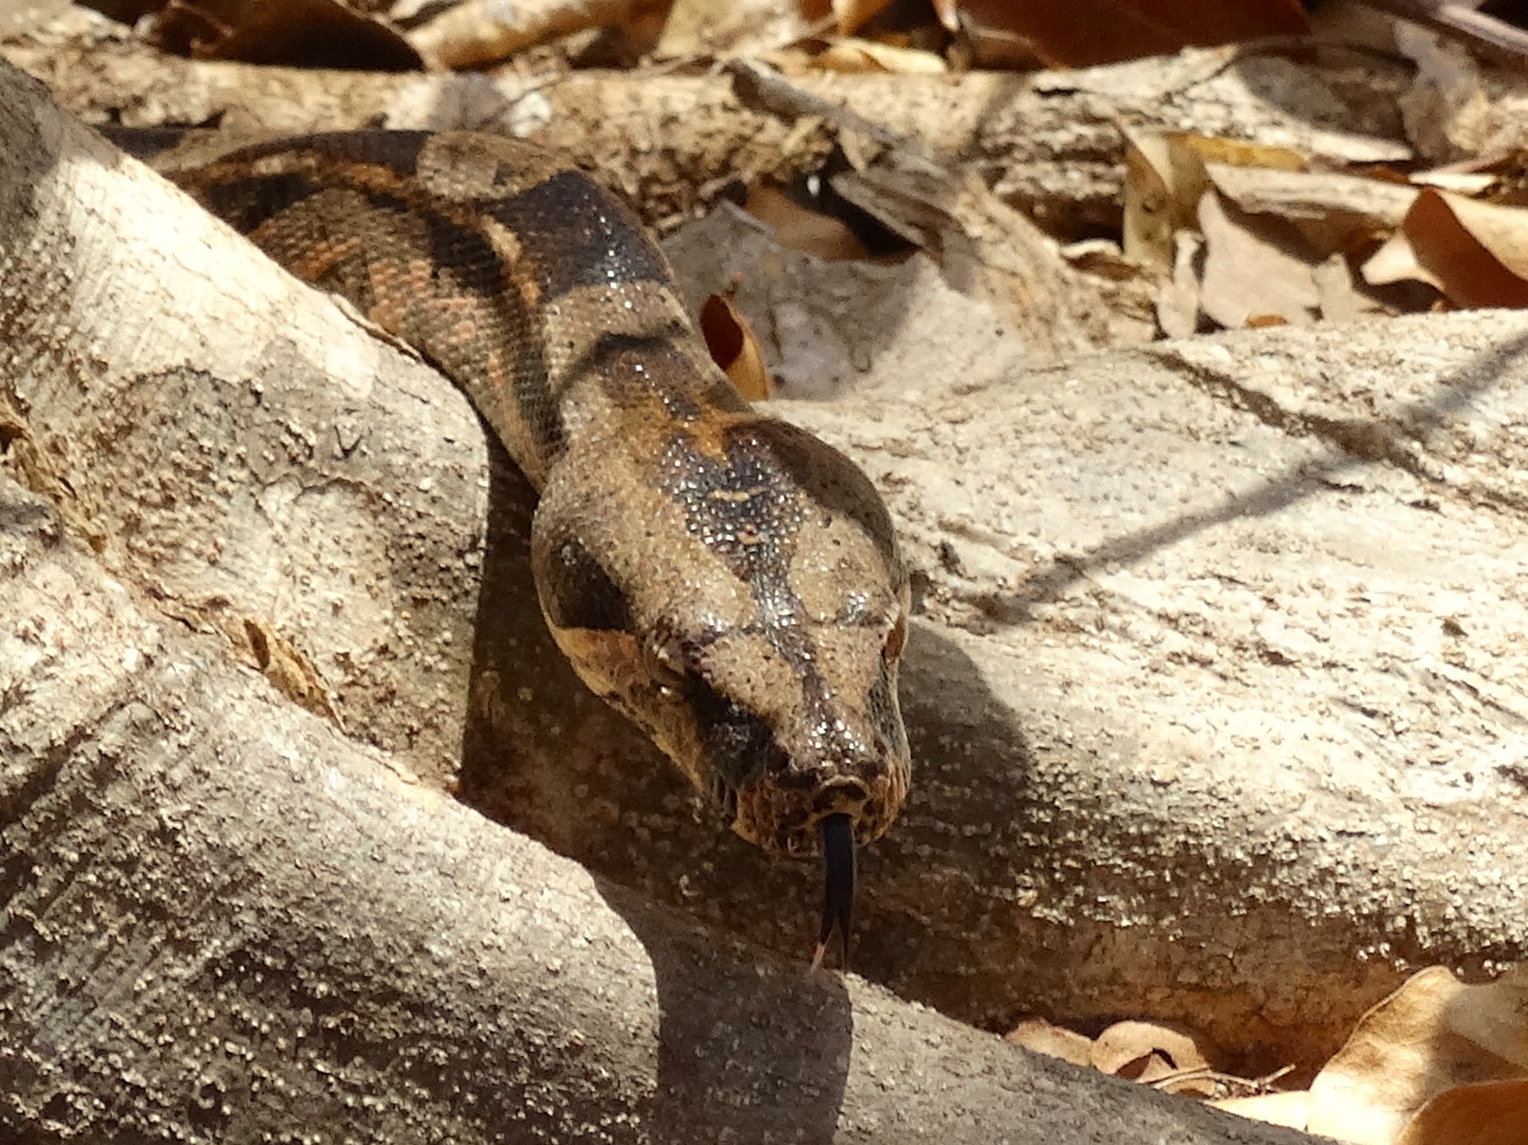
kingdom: Animalia
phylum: Chordata
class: Squamata
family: Boidae
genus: Boa
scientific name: Boa
